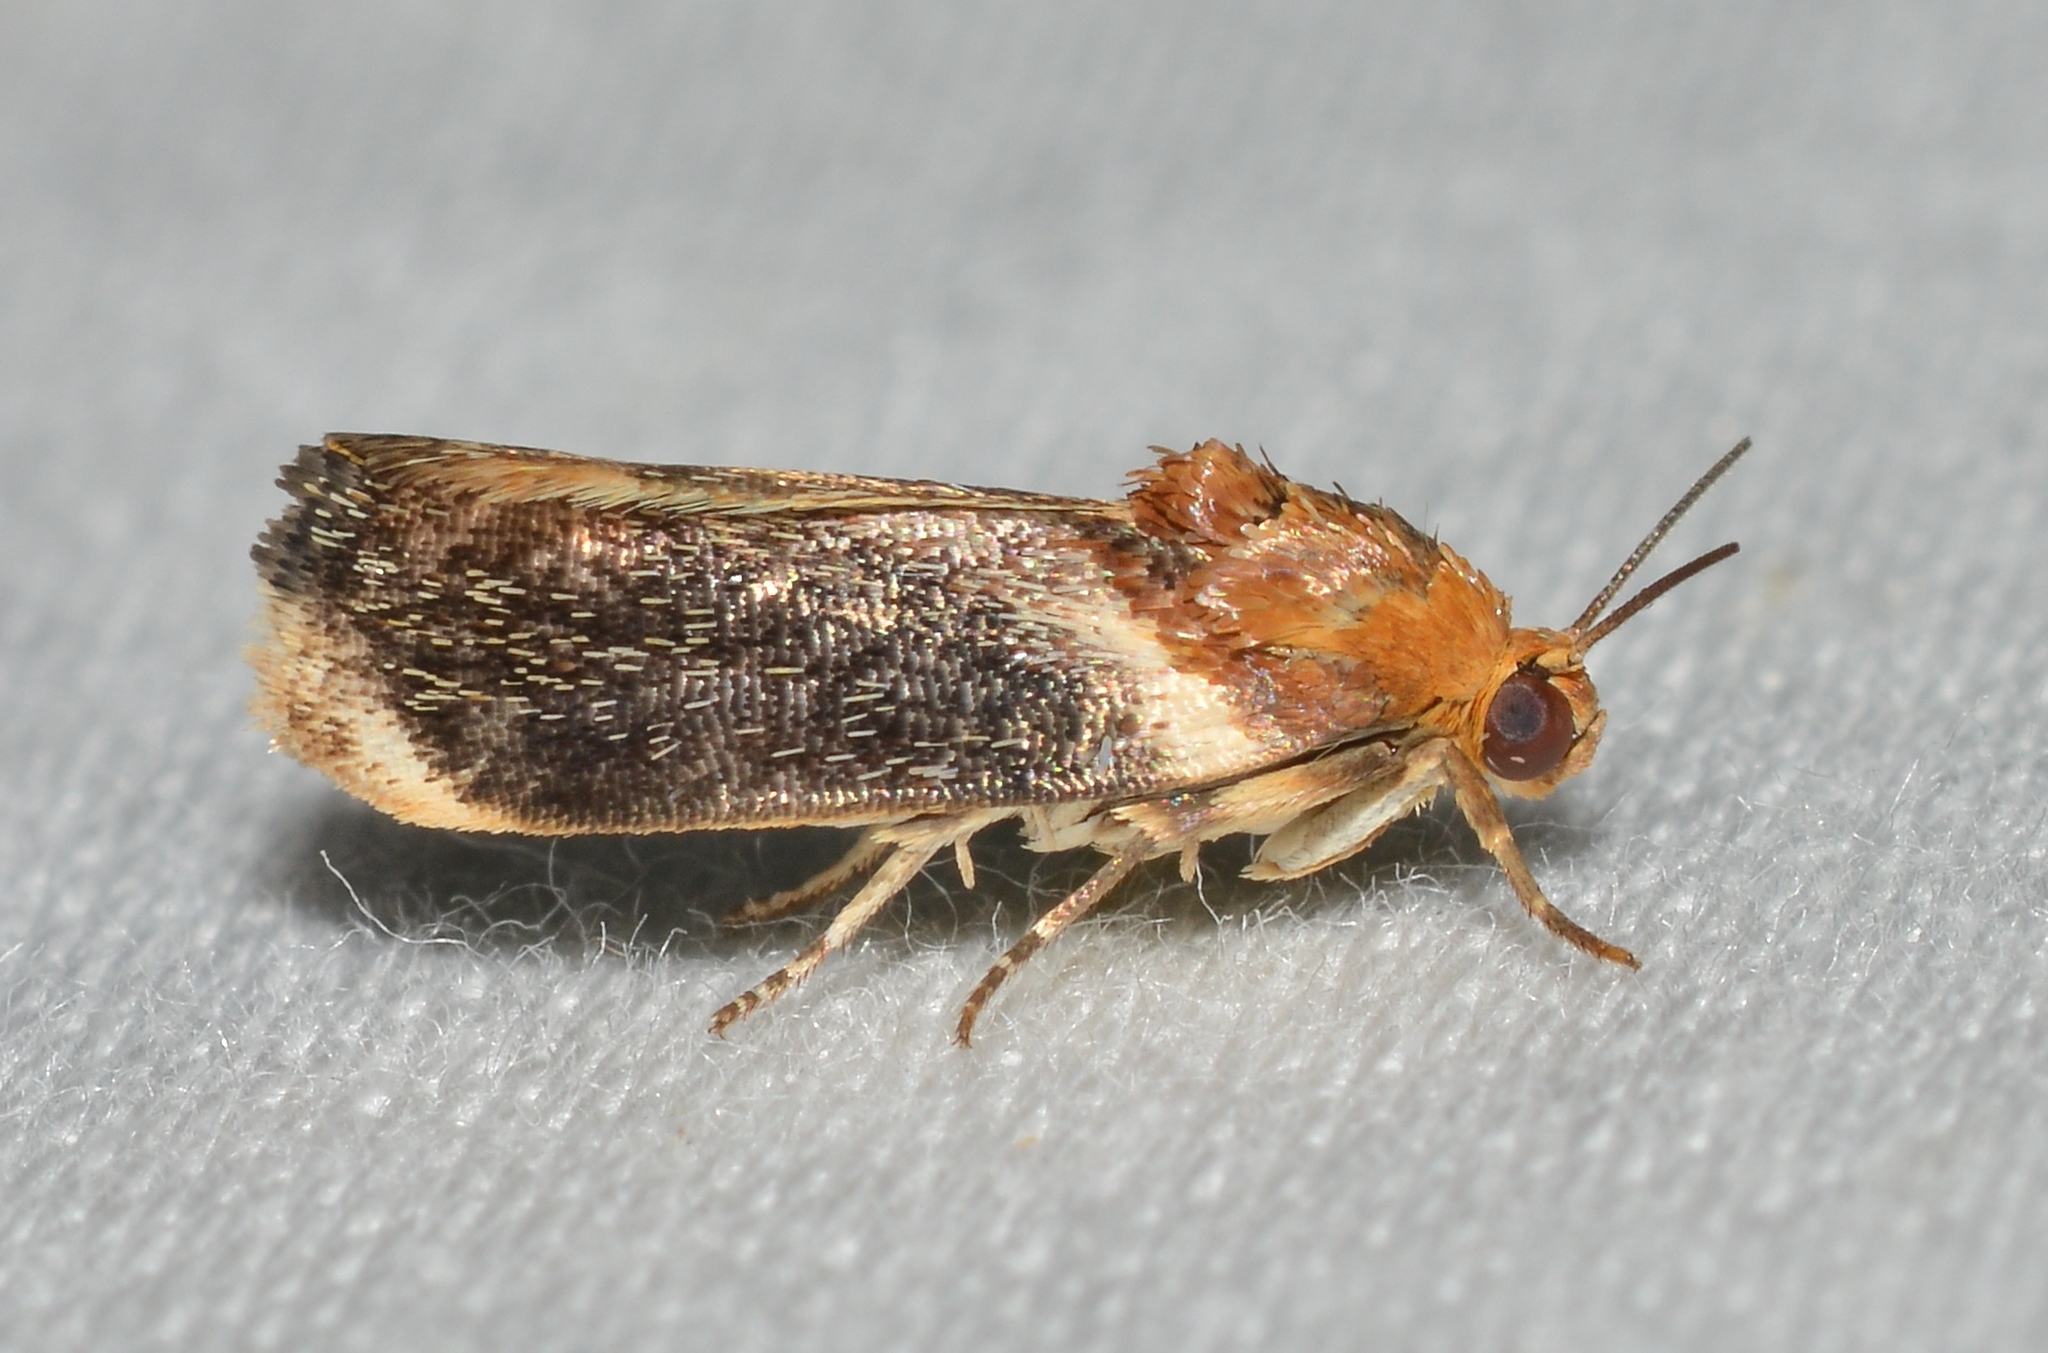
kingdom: Animalia
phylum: Arthropoda
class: Insecta
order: Lepidoptera
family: Noctuidae
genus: Spragueia
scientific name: Spragueia apicalis
